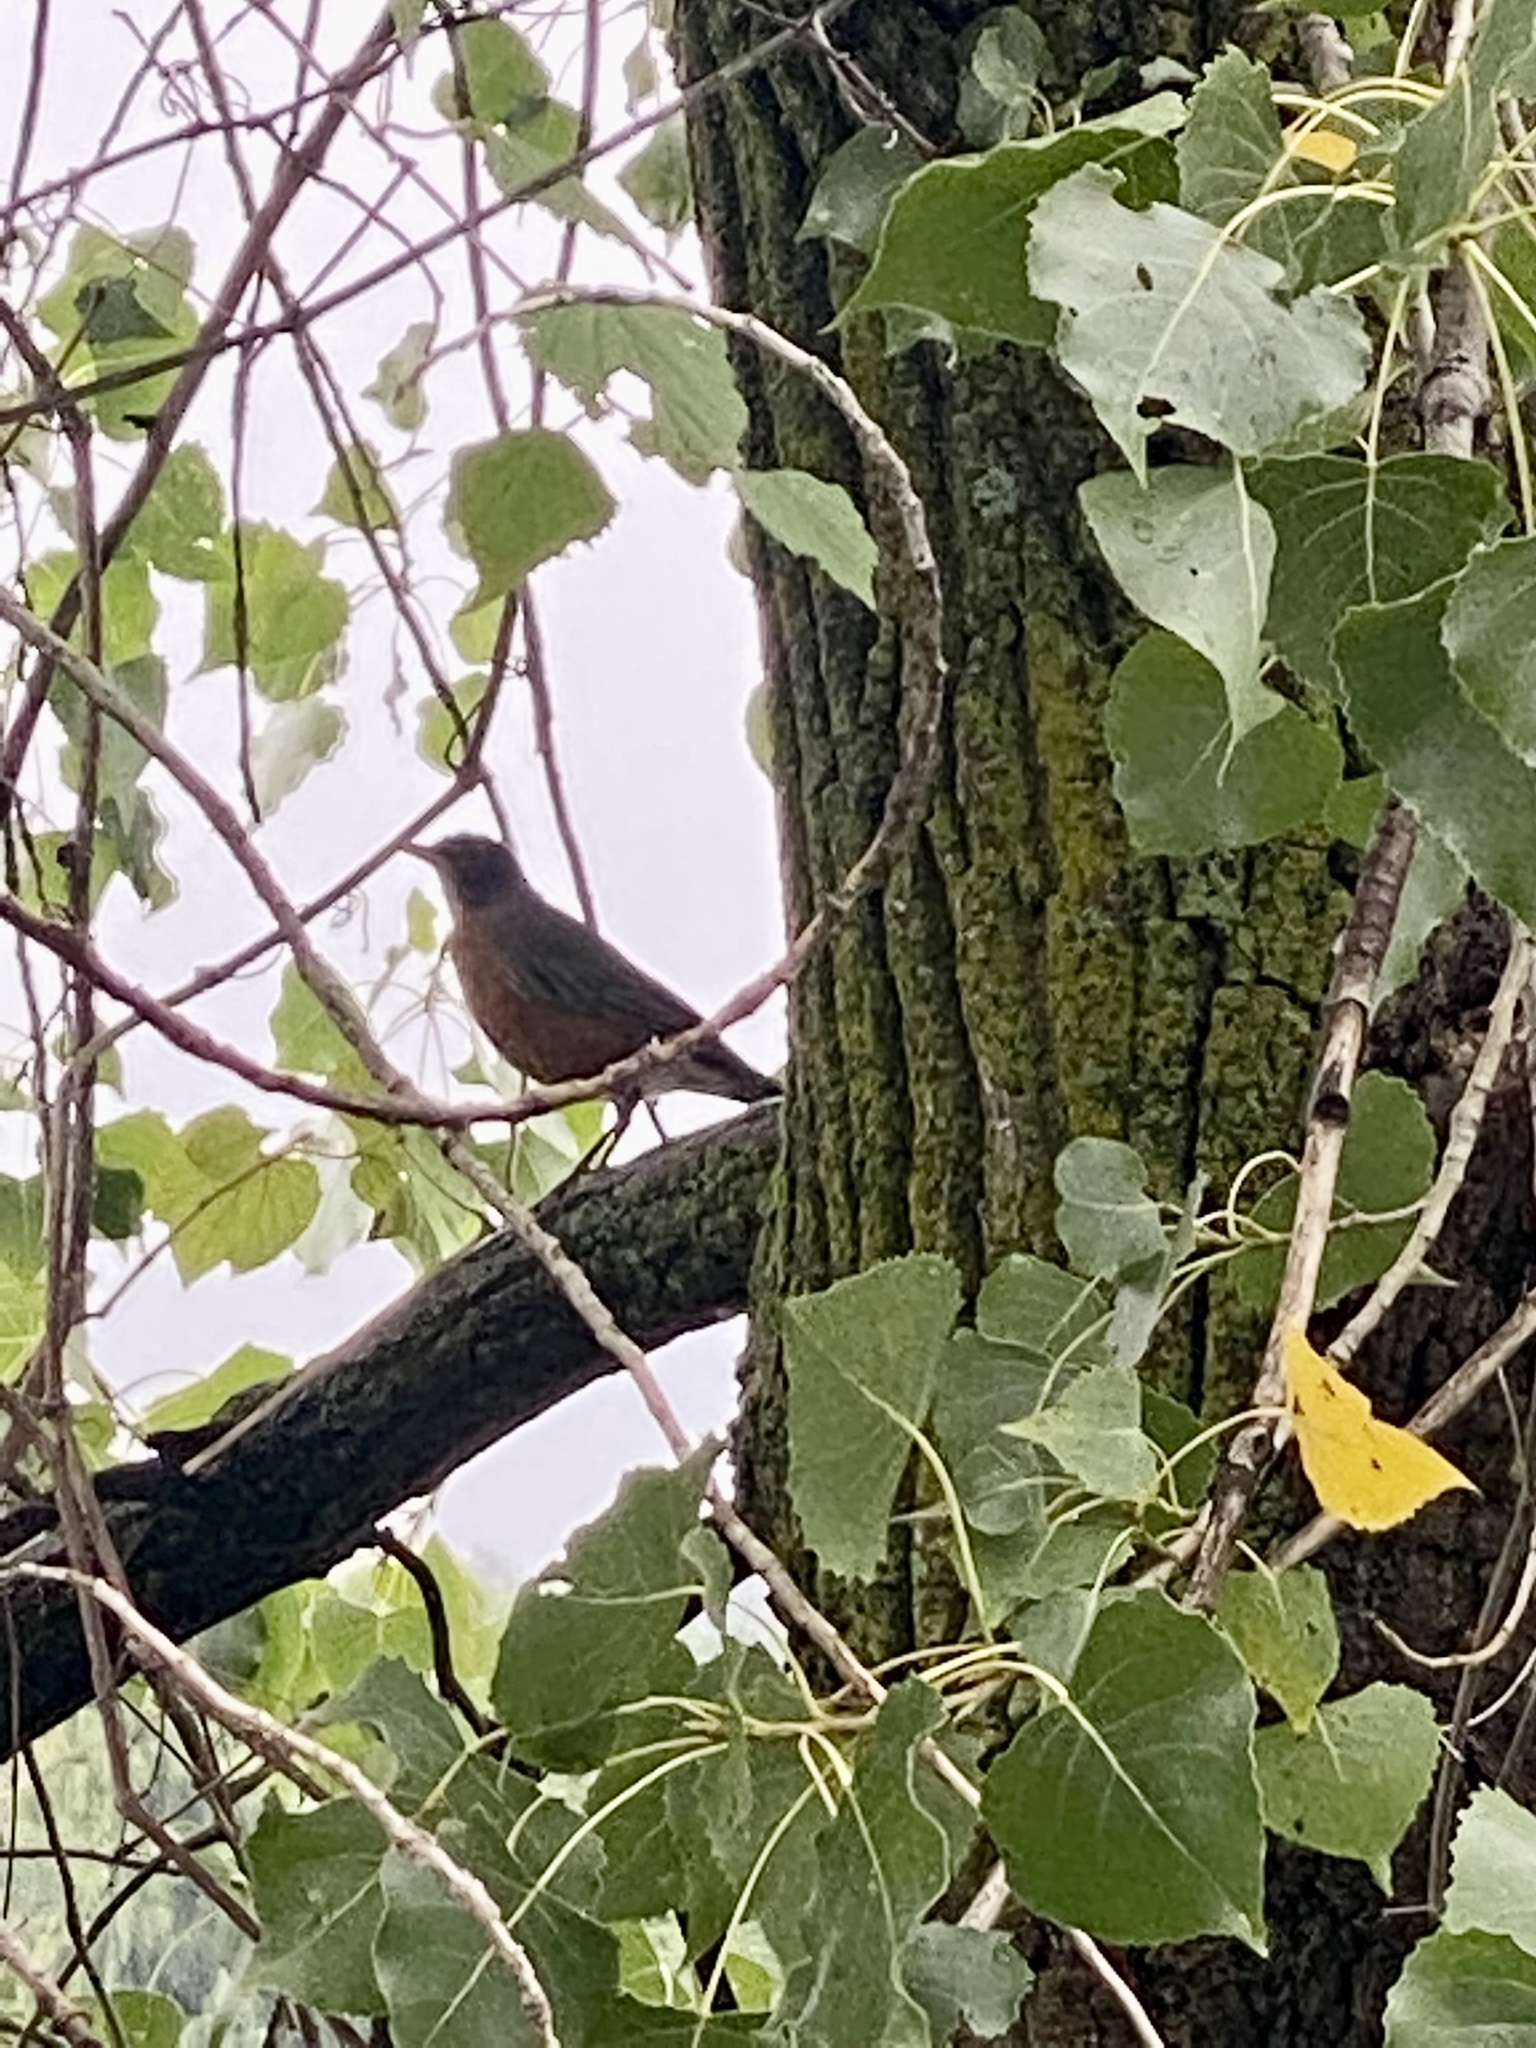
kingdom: Animalia
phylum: Chordata
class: Aves
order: Passeriformes
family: Turdidae
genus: Turdus
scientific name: Turdus migratorius
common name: American robin
